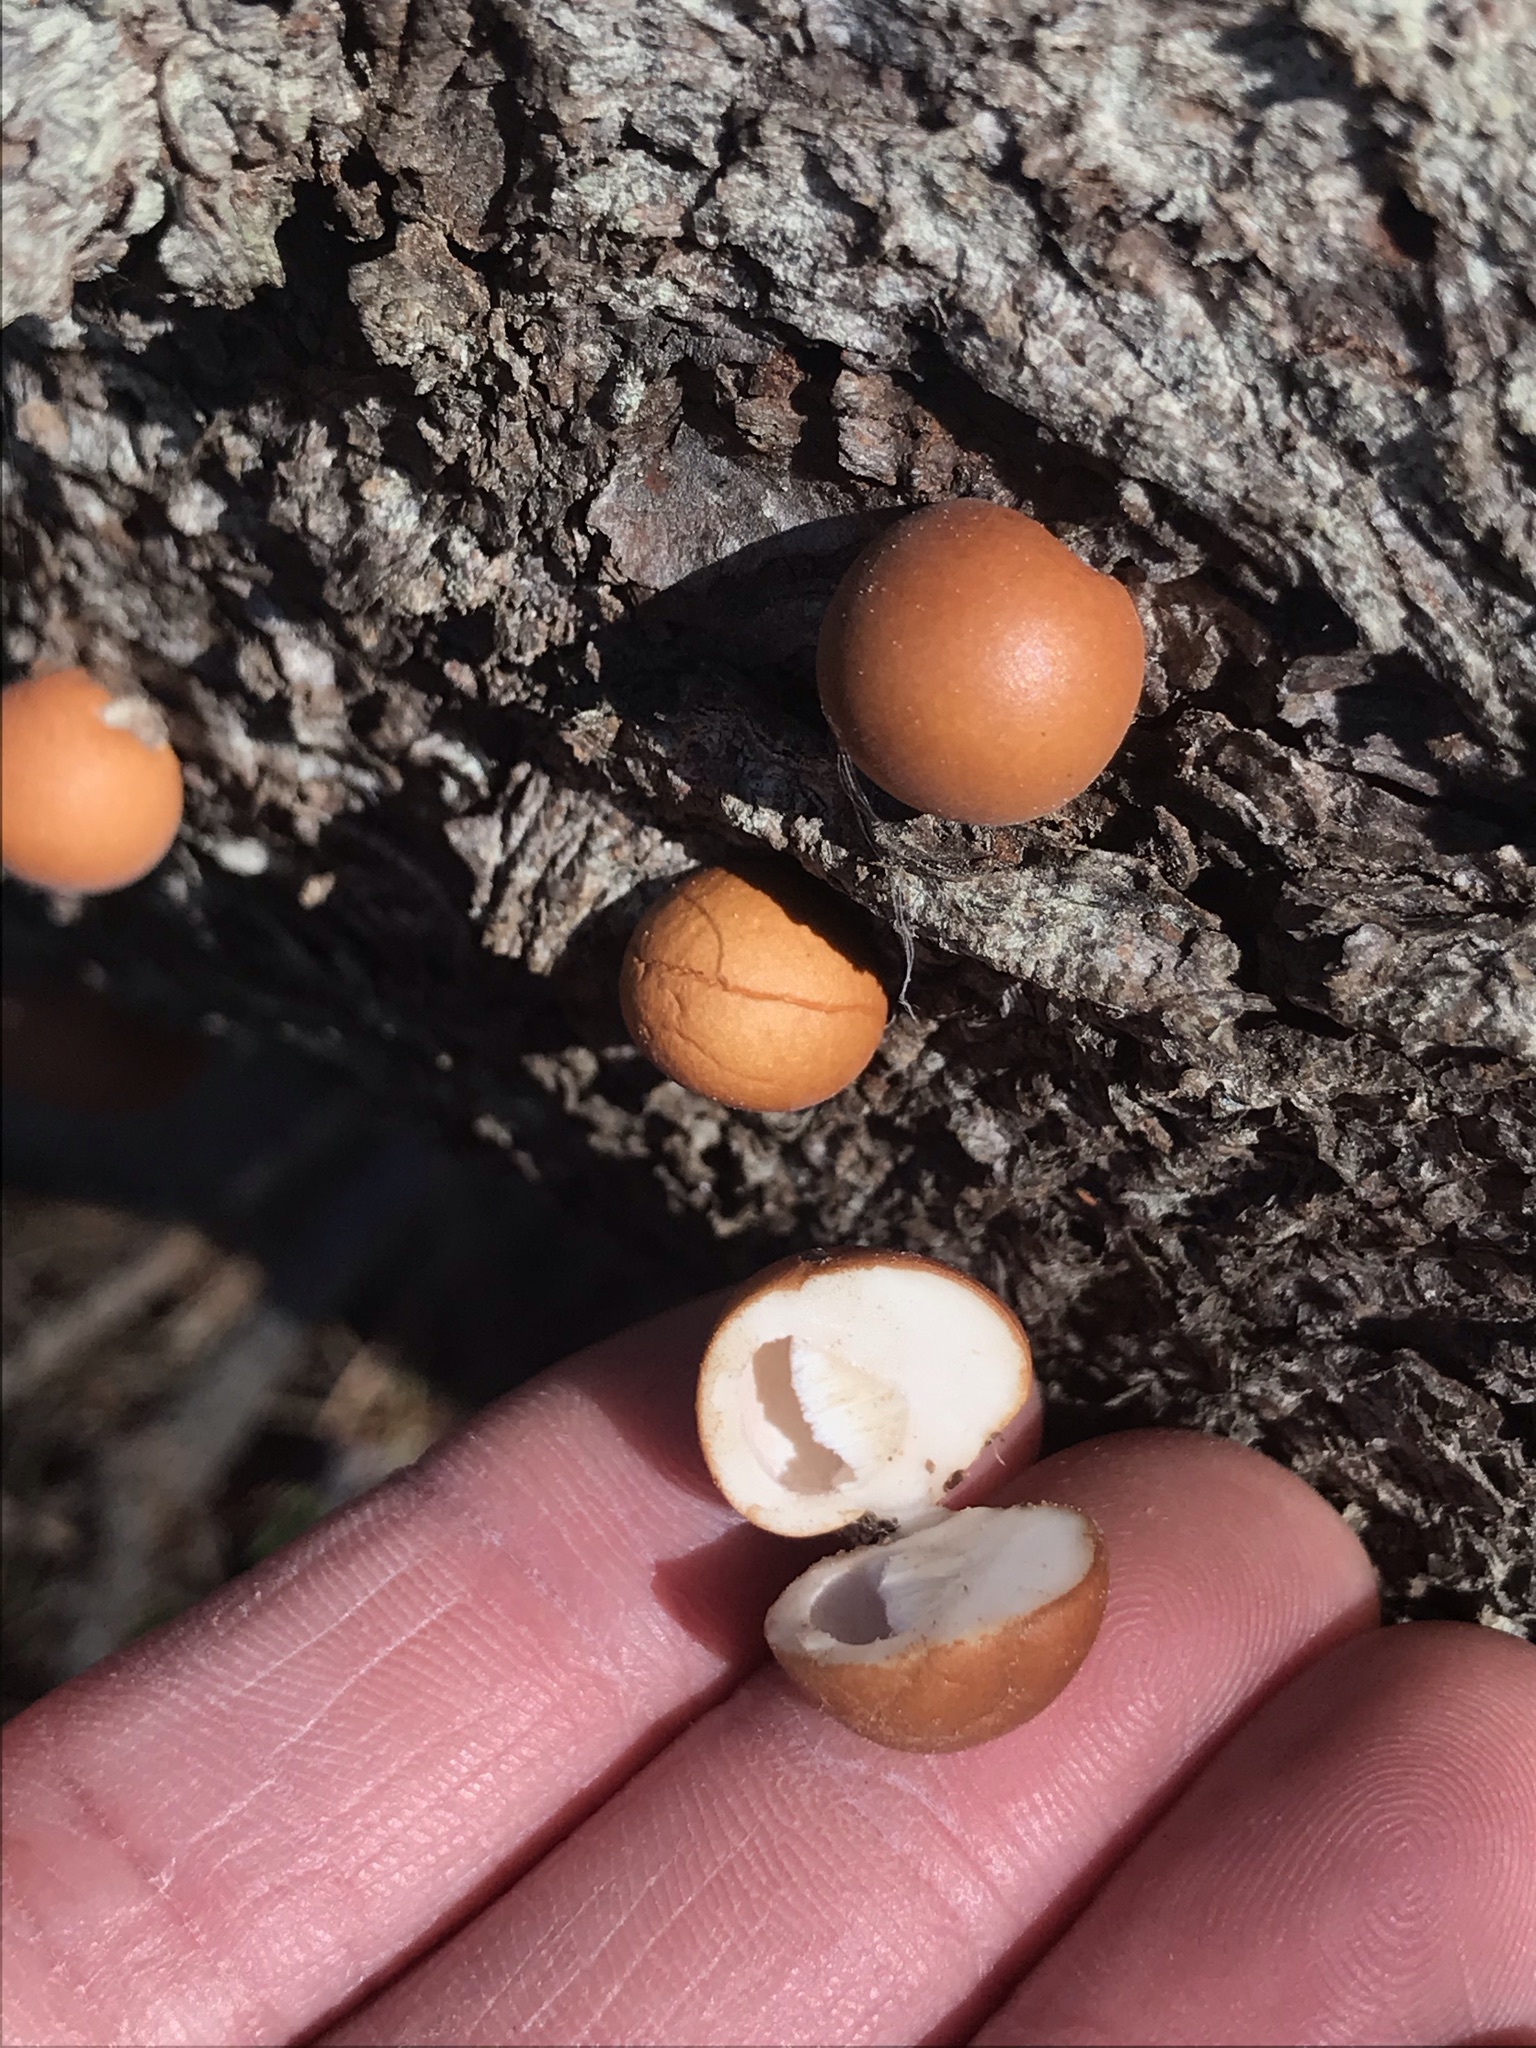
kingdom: Fungi
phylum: Basidiomycota
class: Agaricomycetes
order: Polyporales
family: Polyporaceae
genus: Cryptoporus
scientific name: Cryptoporus volvatus
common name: Veiled polypore
